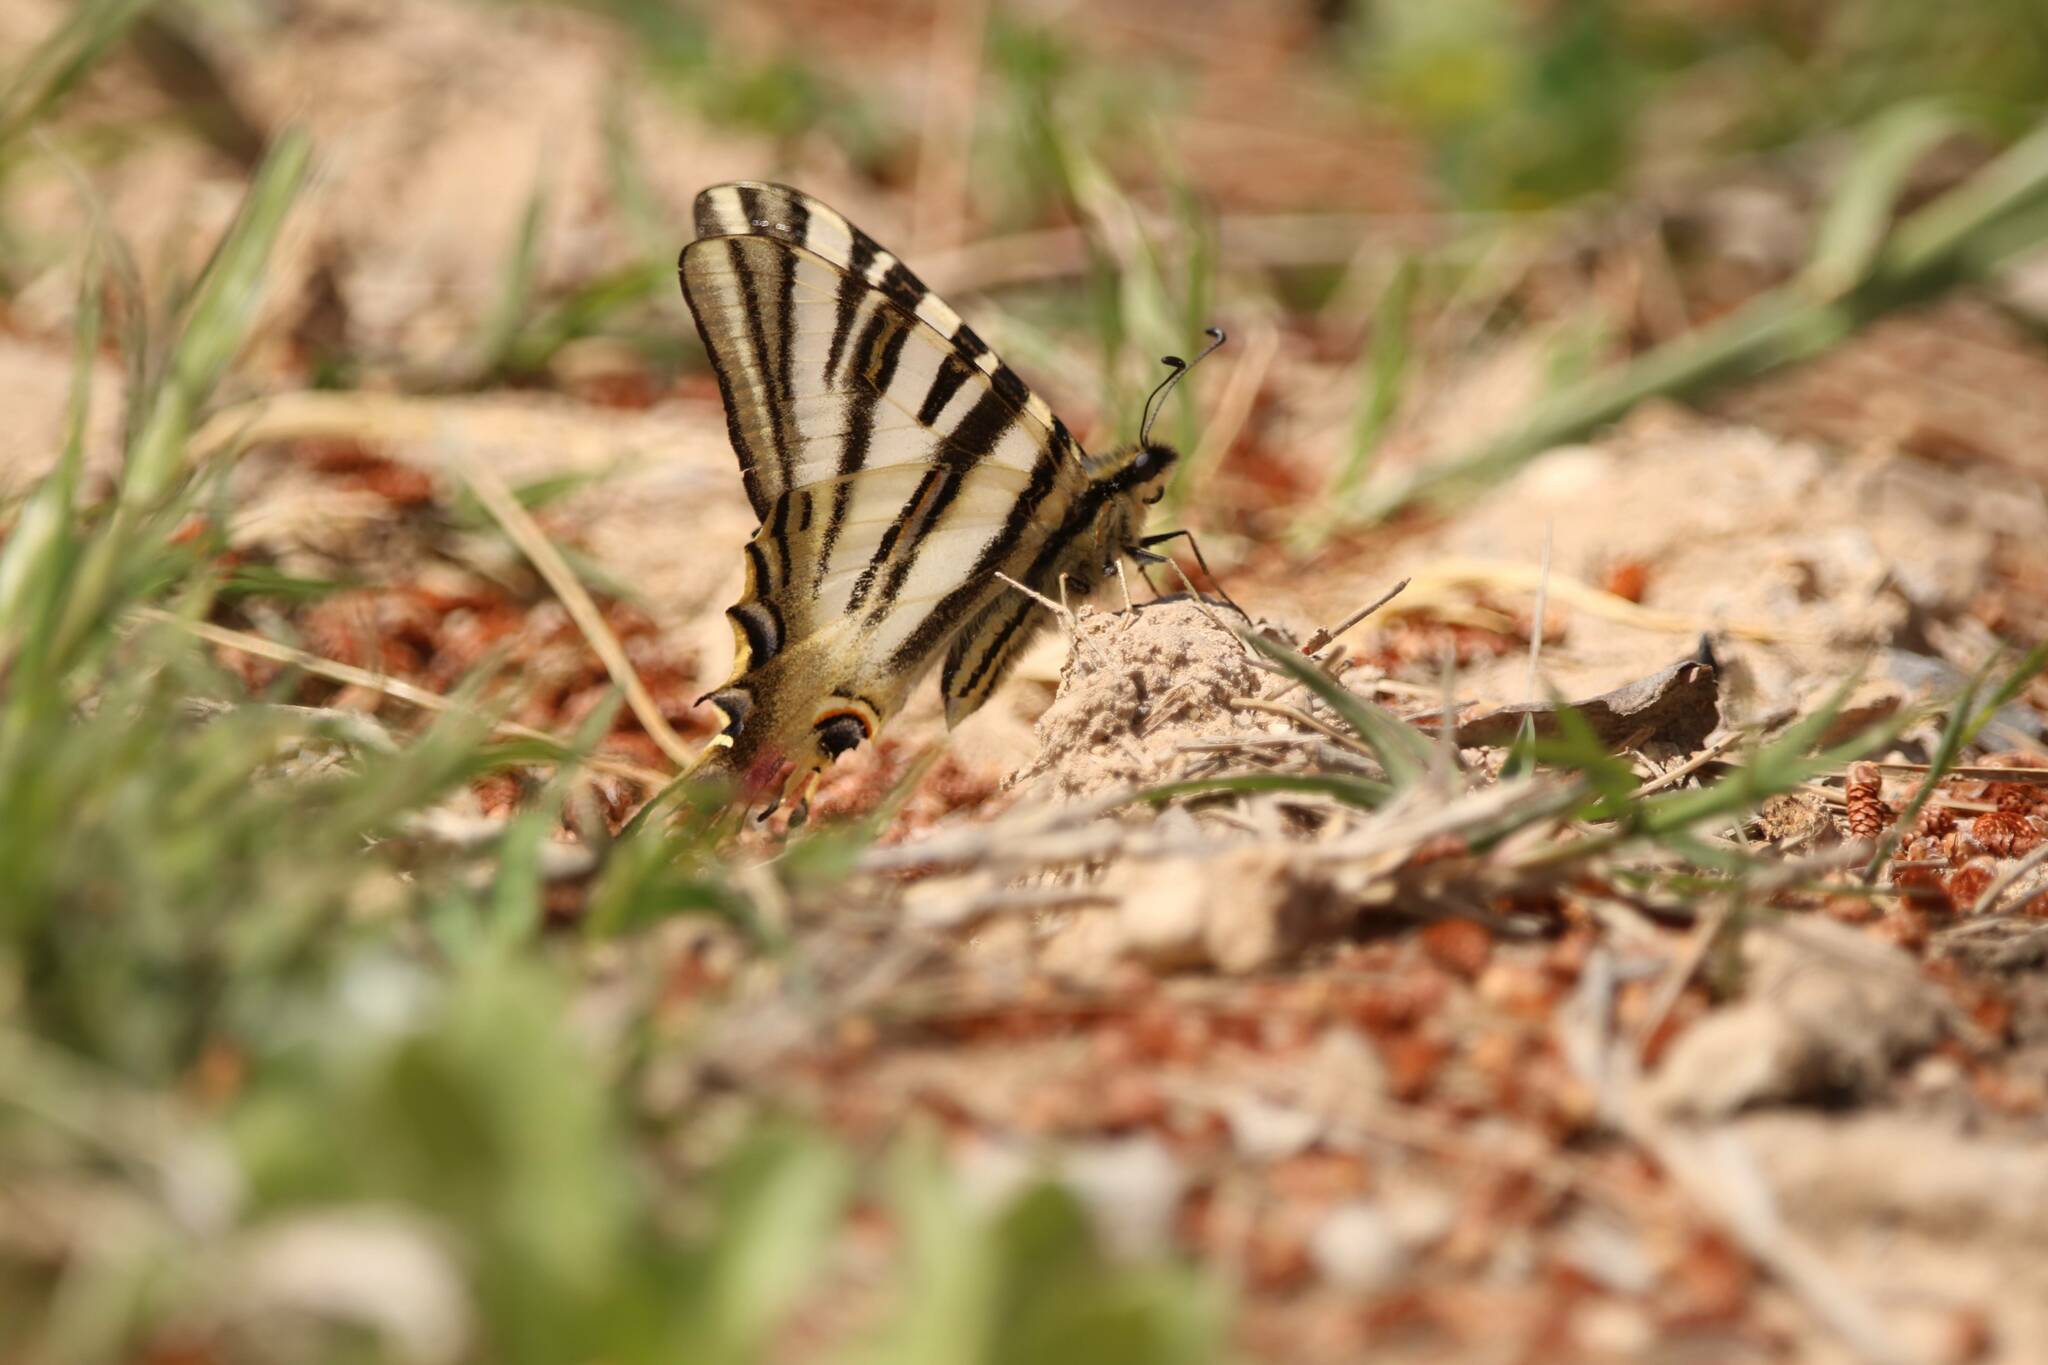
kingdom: Animalia
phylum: Arthropoda
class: Insecta
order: Lepidoptera
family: Papilionidae
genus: Iphiclides
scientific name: Iphiclides feisthamelii
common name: Iberian scarce swallowtail
